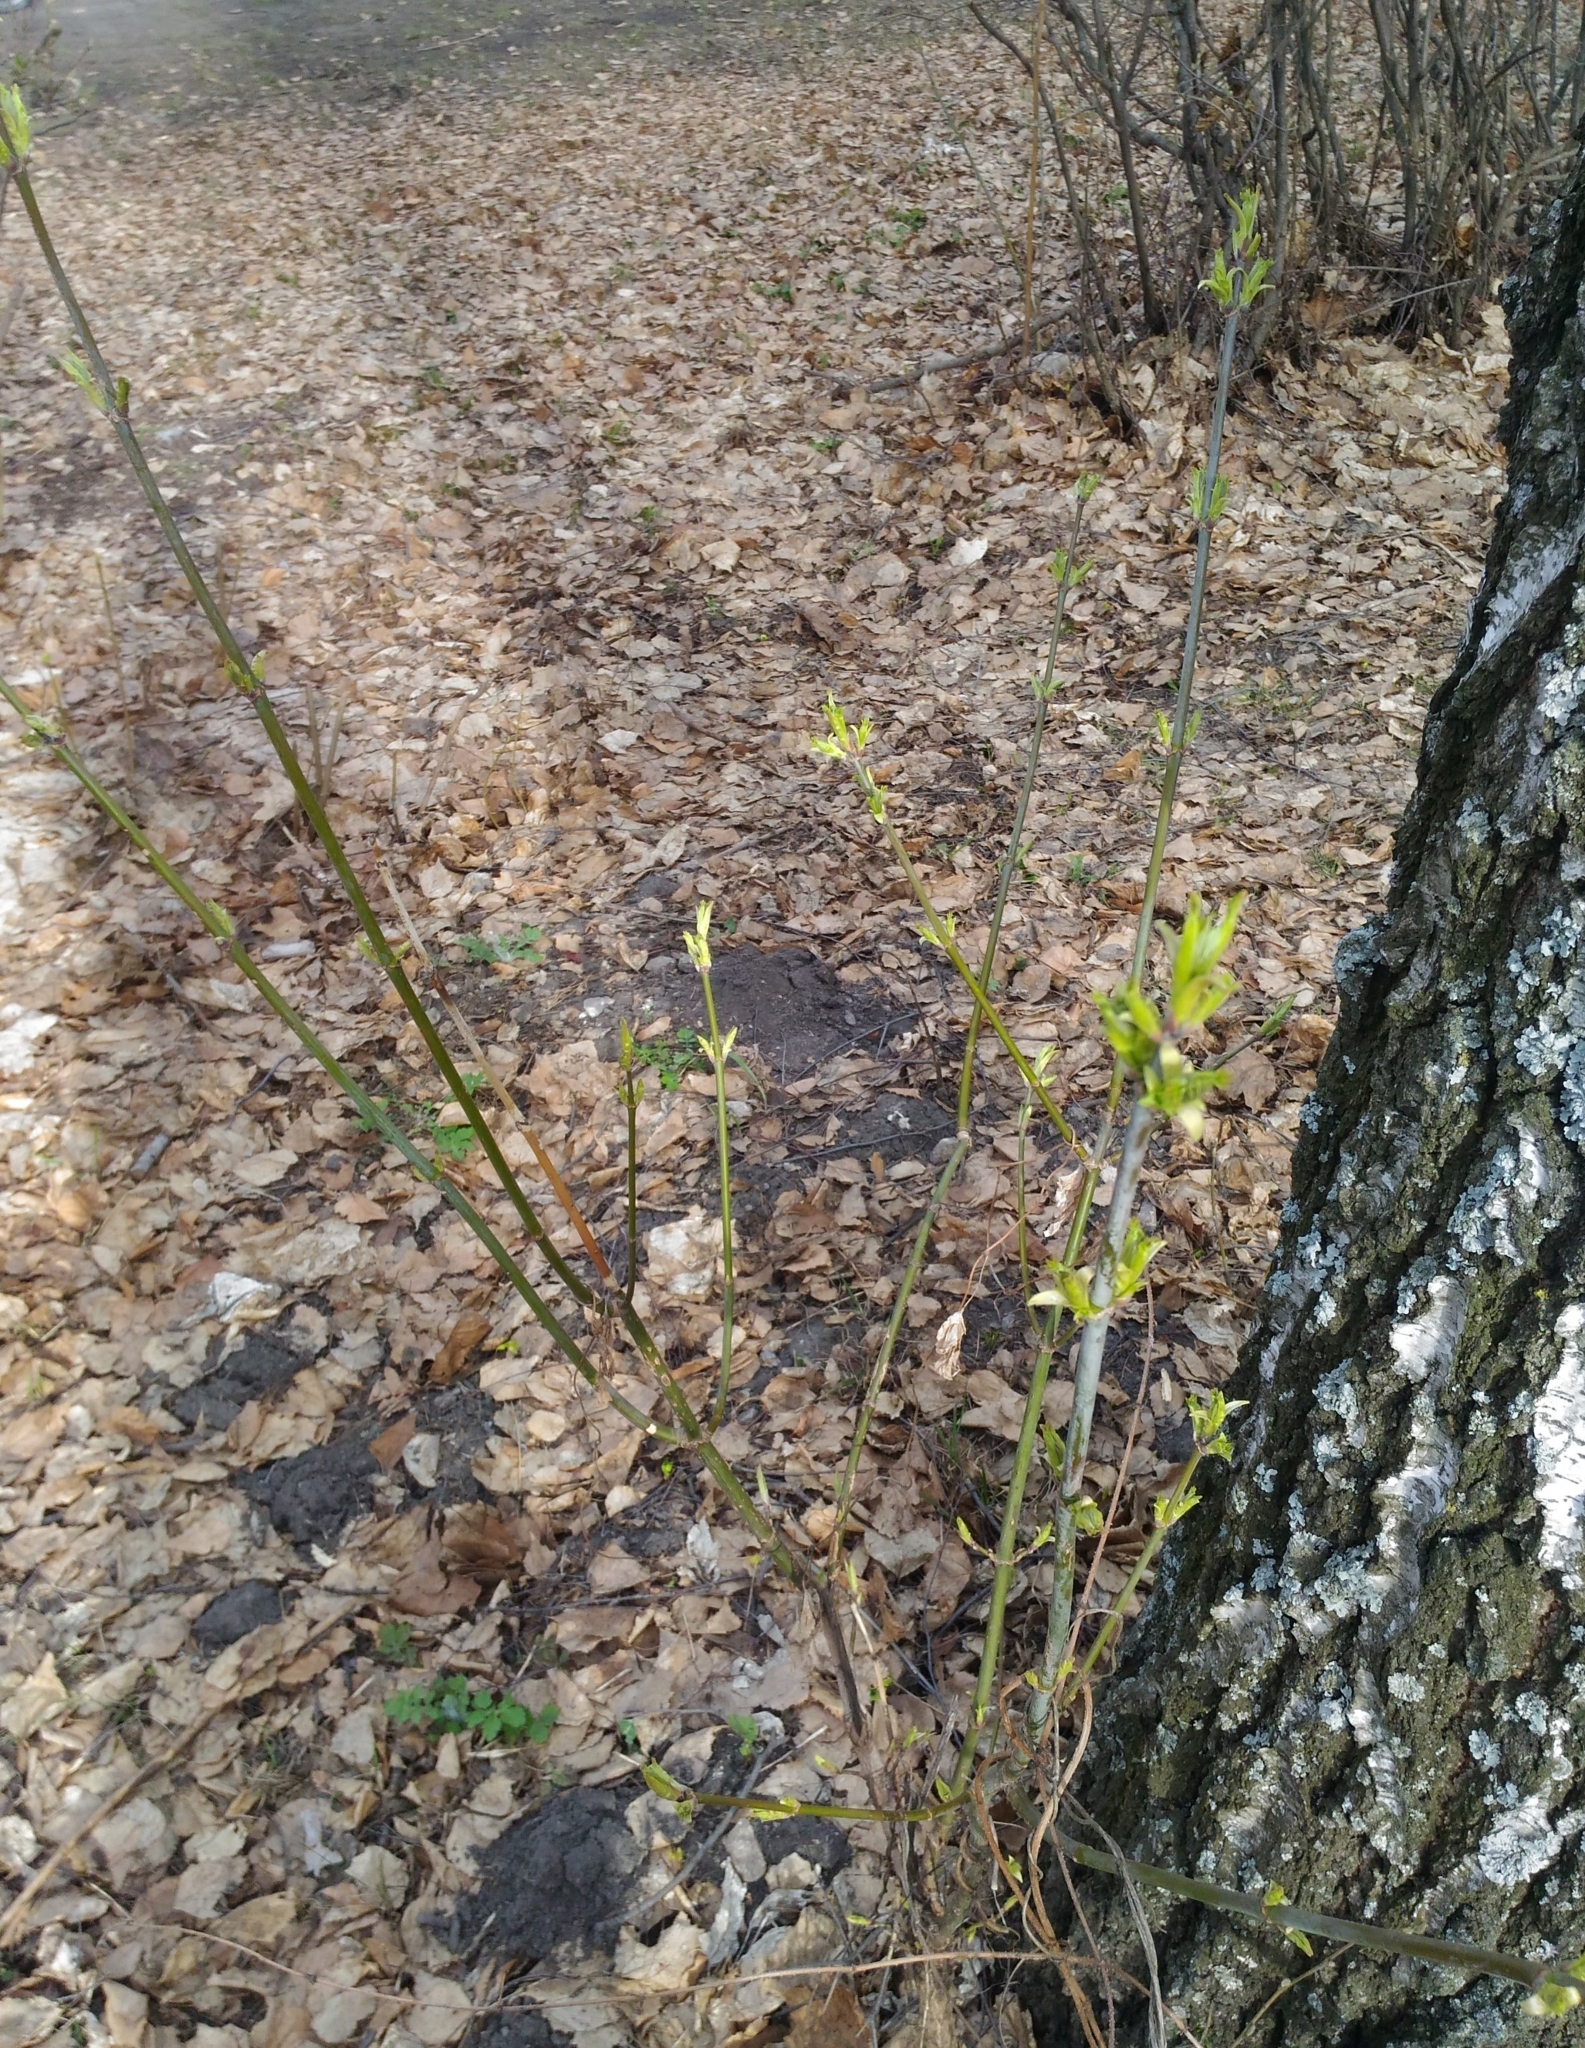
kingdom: Plantae
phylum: Tracheophyta
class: Magnoliopsida
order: Sapindales
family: Sapindaceae
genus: Acer
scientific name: Acer negundo
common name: Ashleaf maple
